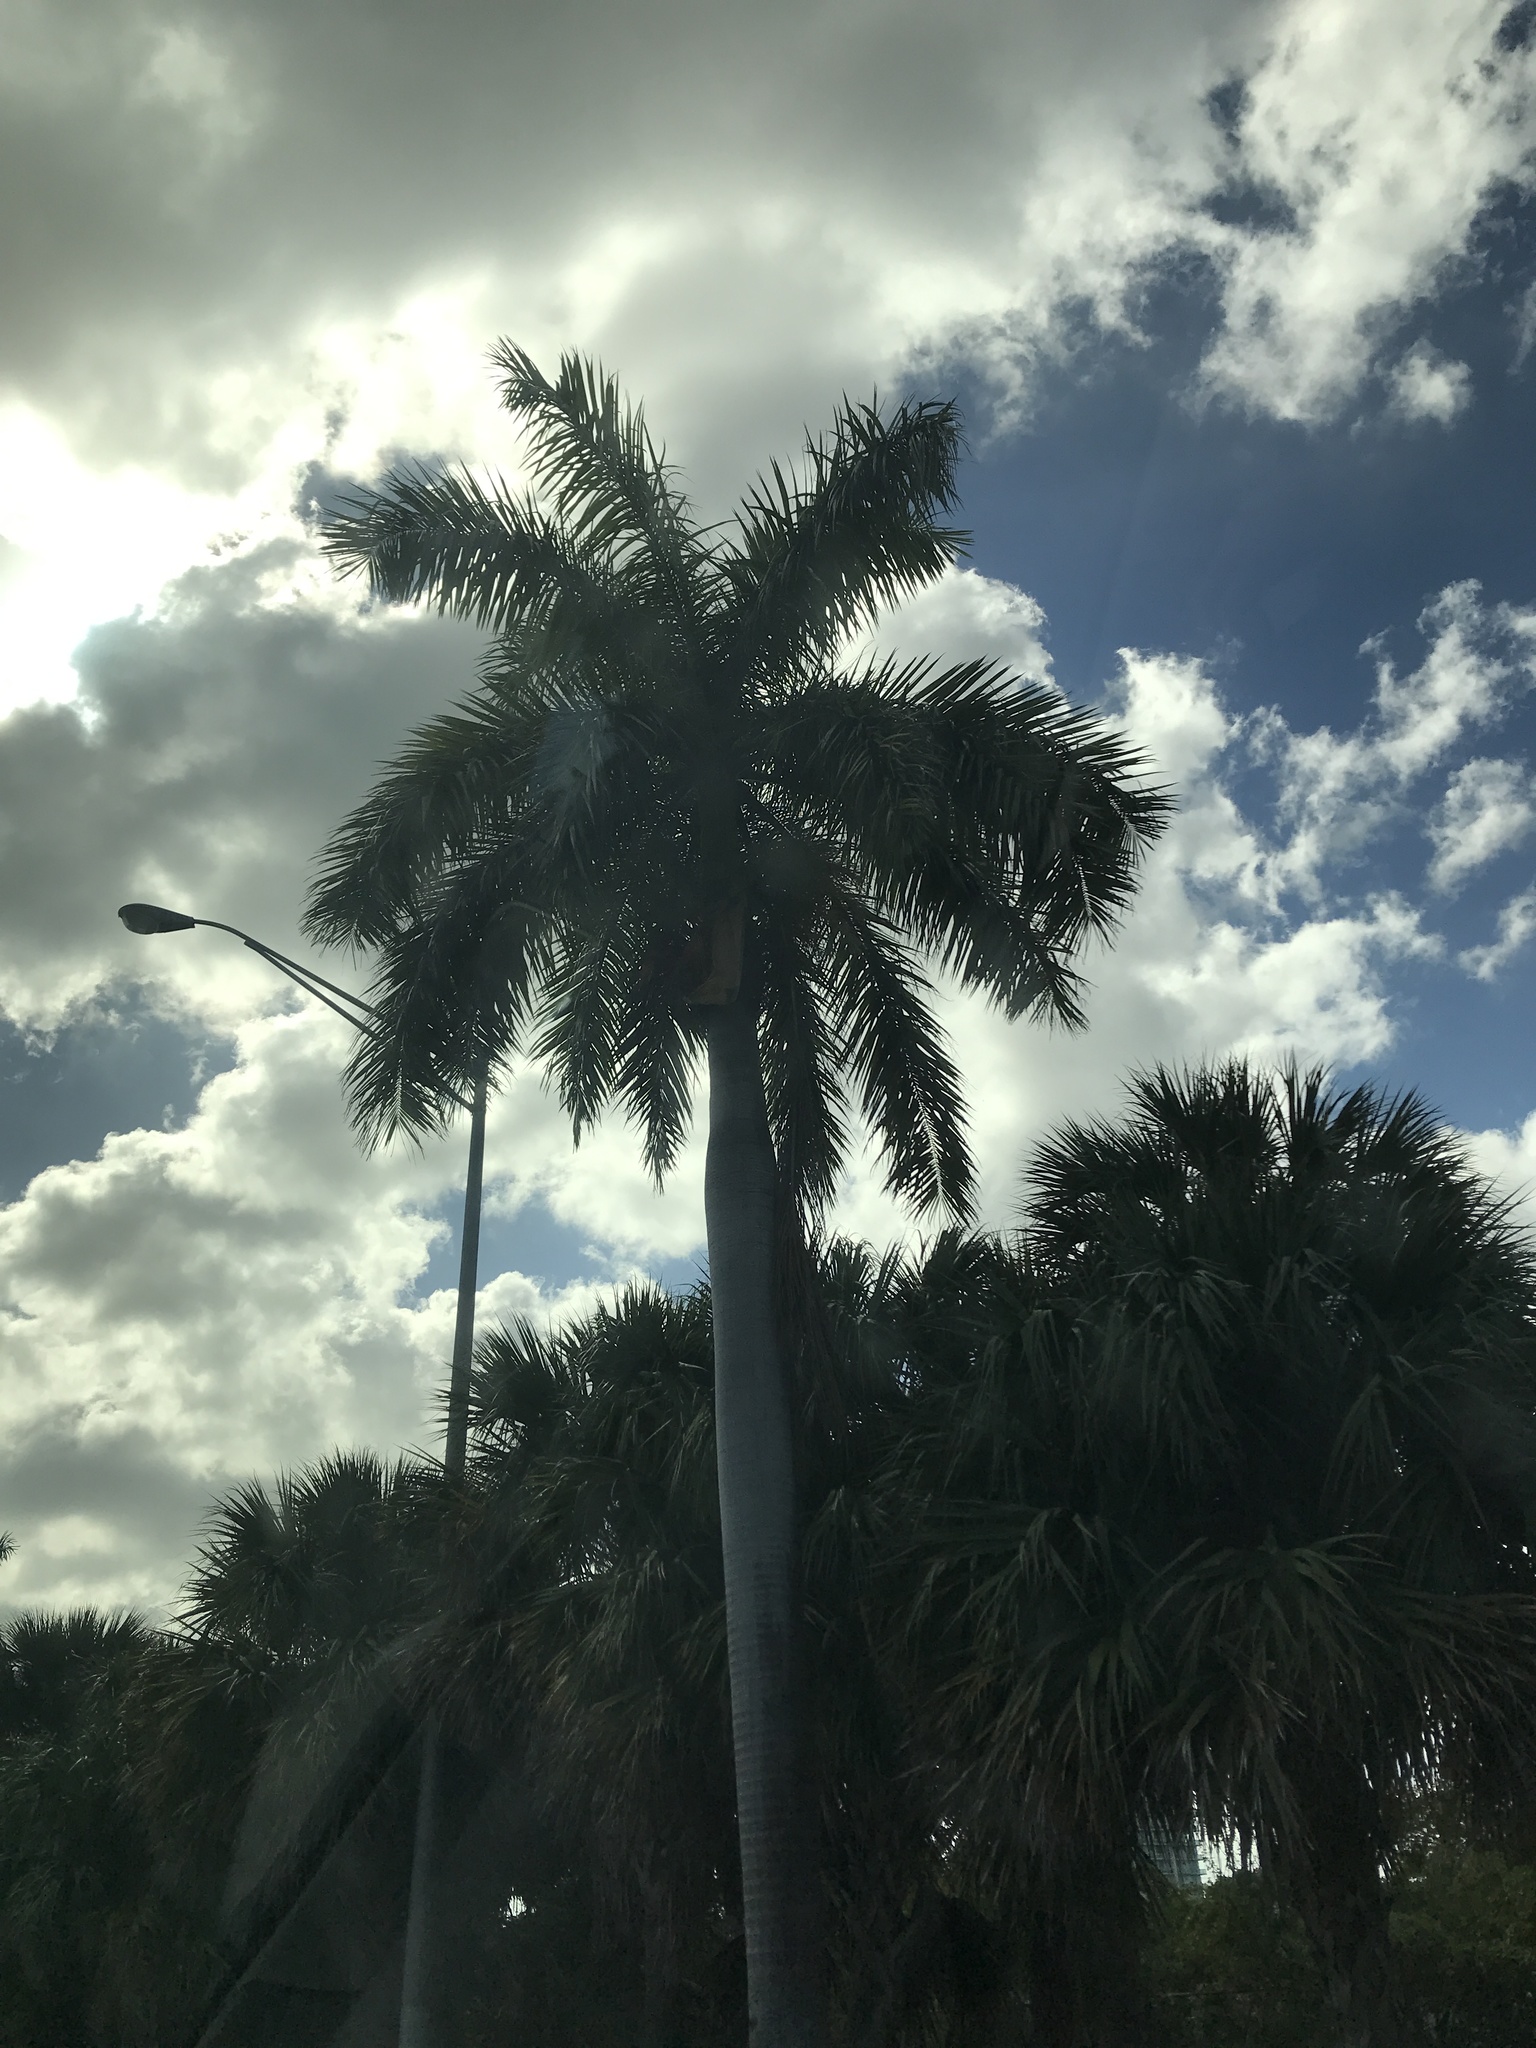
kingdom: Plantae
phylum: Tracheophyta
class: Liliopsida
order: Arecales
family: Arecaceae
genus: Roystonea
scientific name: Roystonea regia
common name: Florida royal palm
